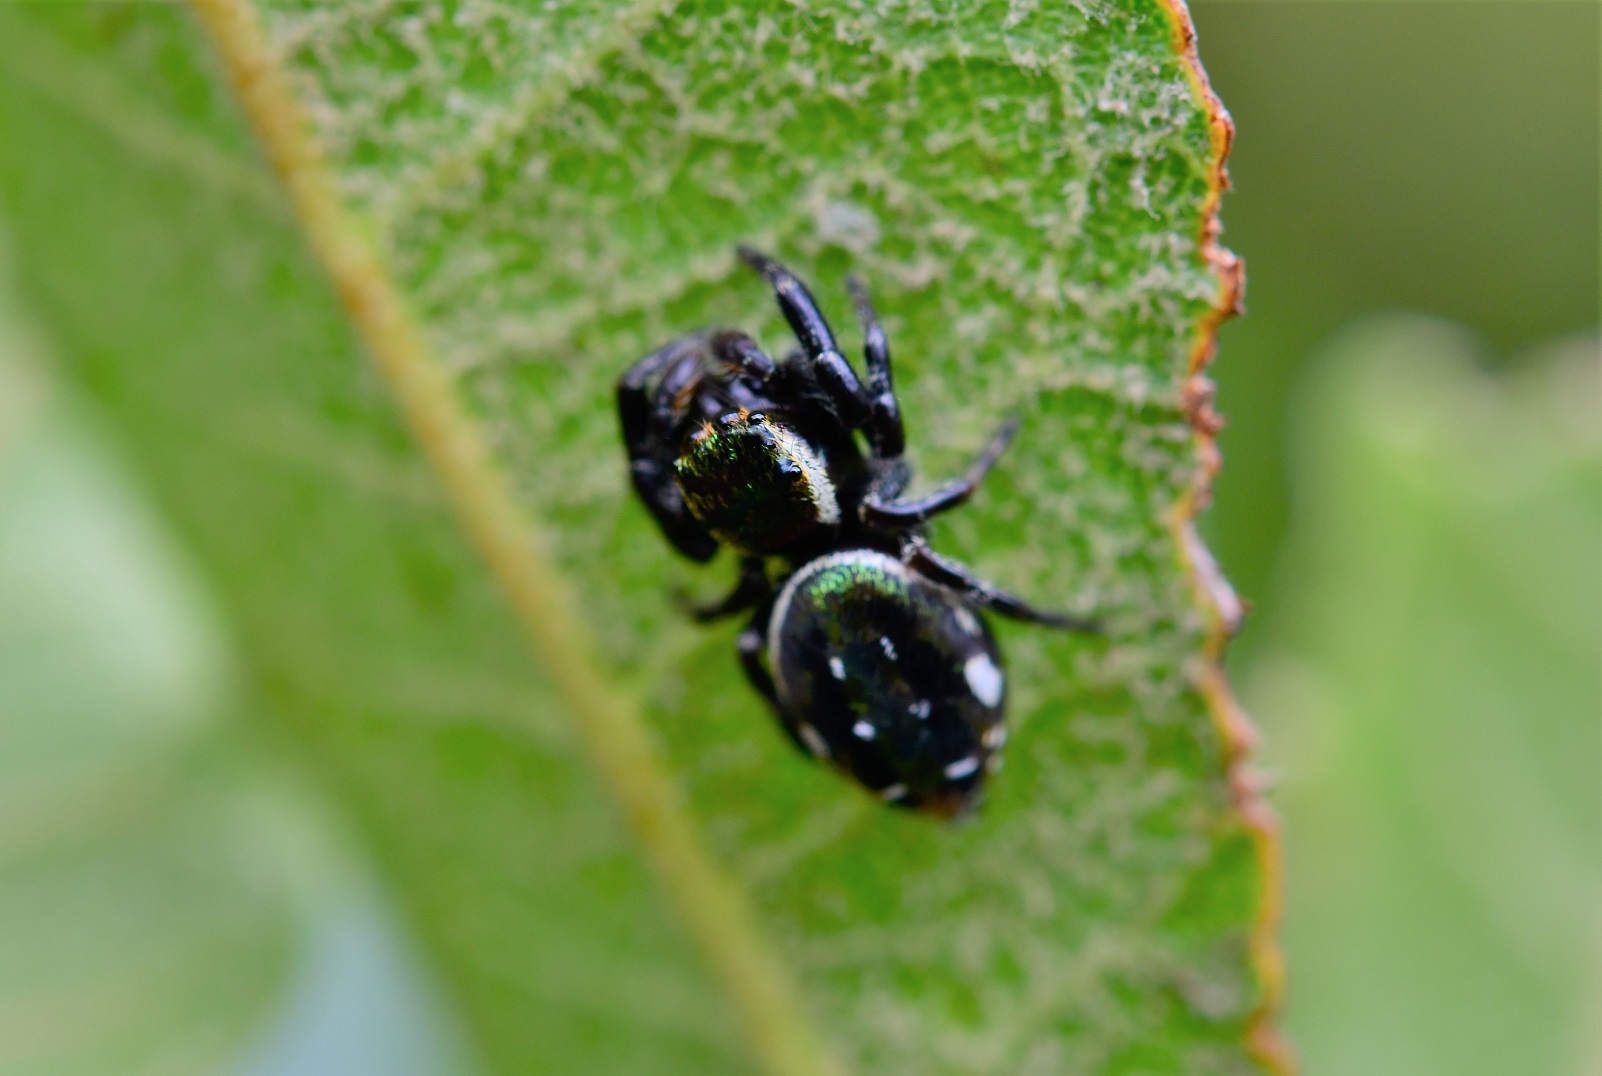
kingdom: Animalia
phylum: Arthropoda
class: Arachnida
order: Araneae
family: Salticidae
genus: Paraphidippus
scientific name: Paraphidippus aurantius
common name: Jumping spiders
